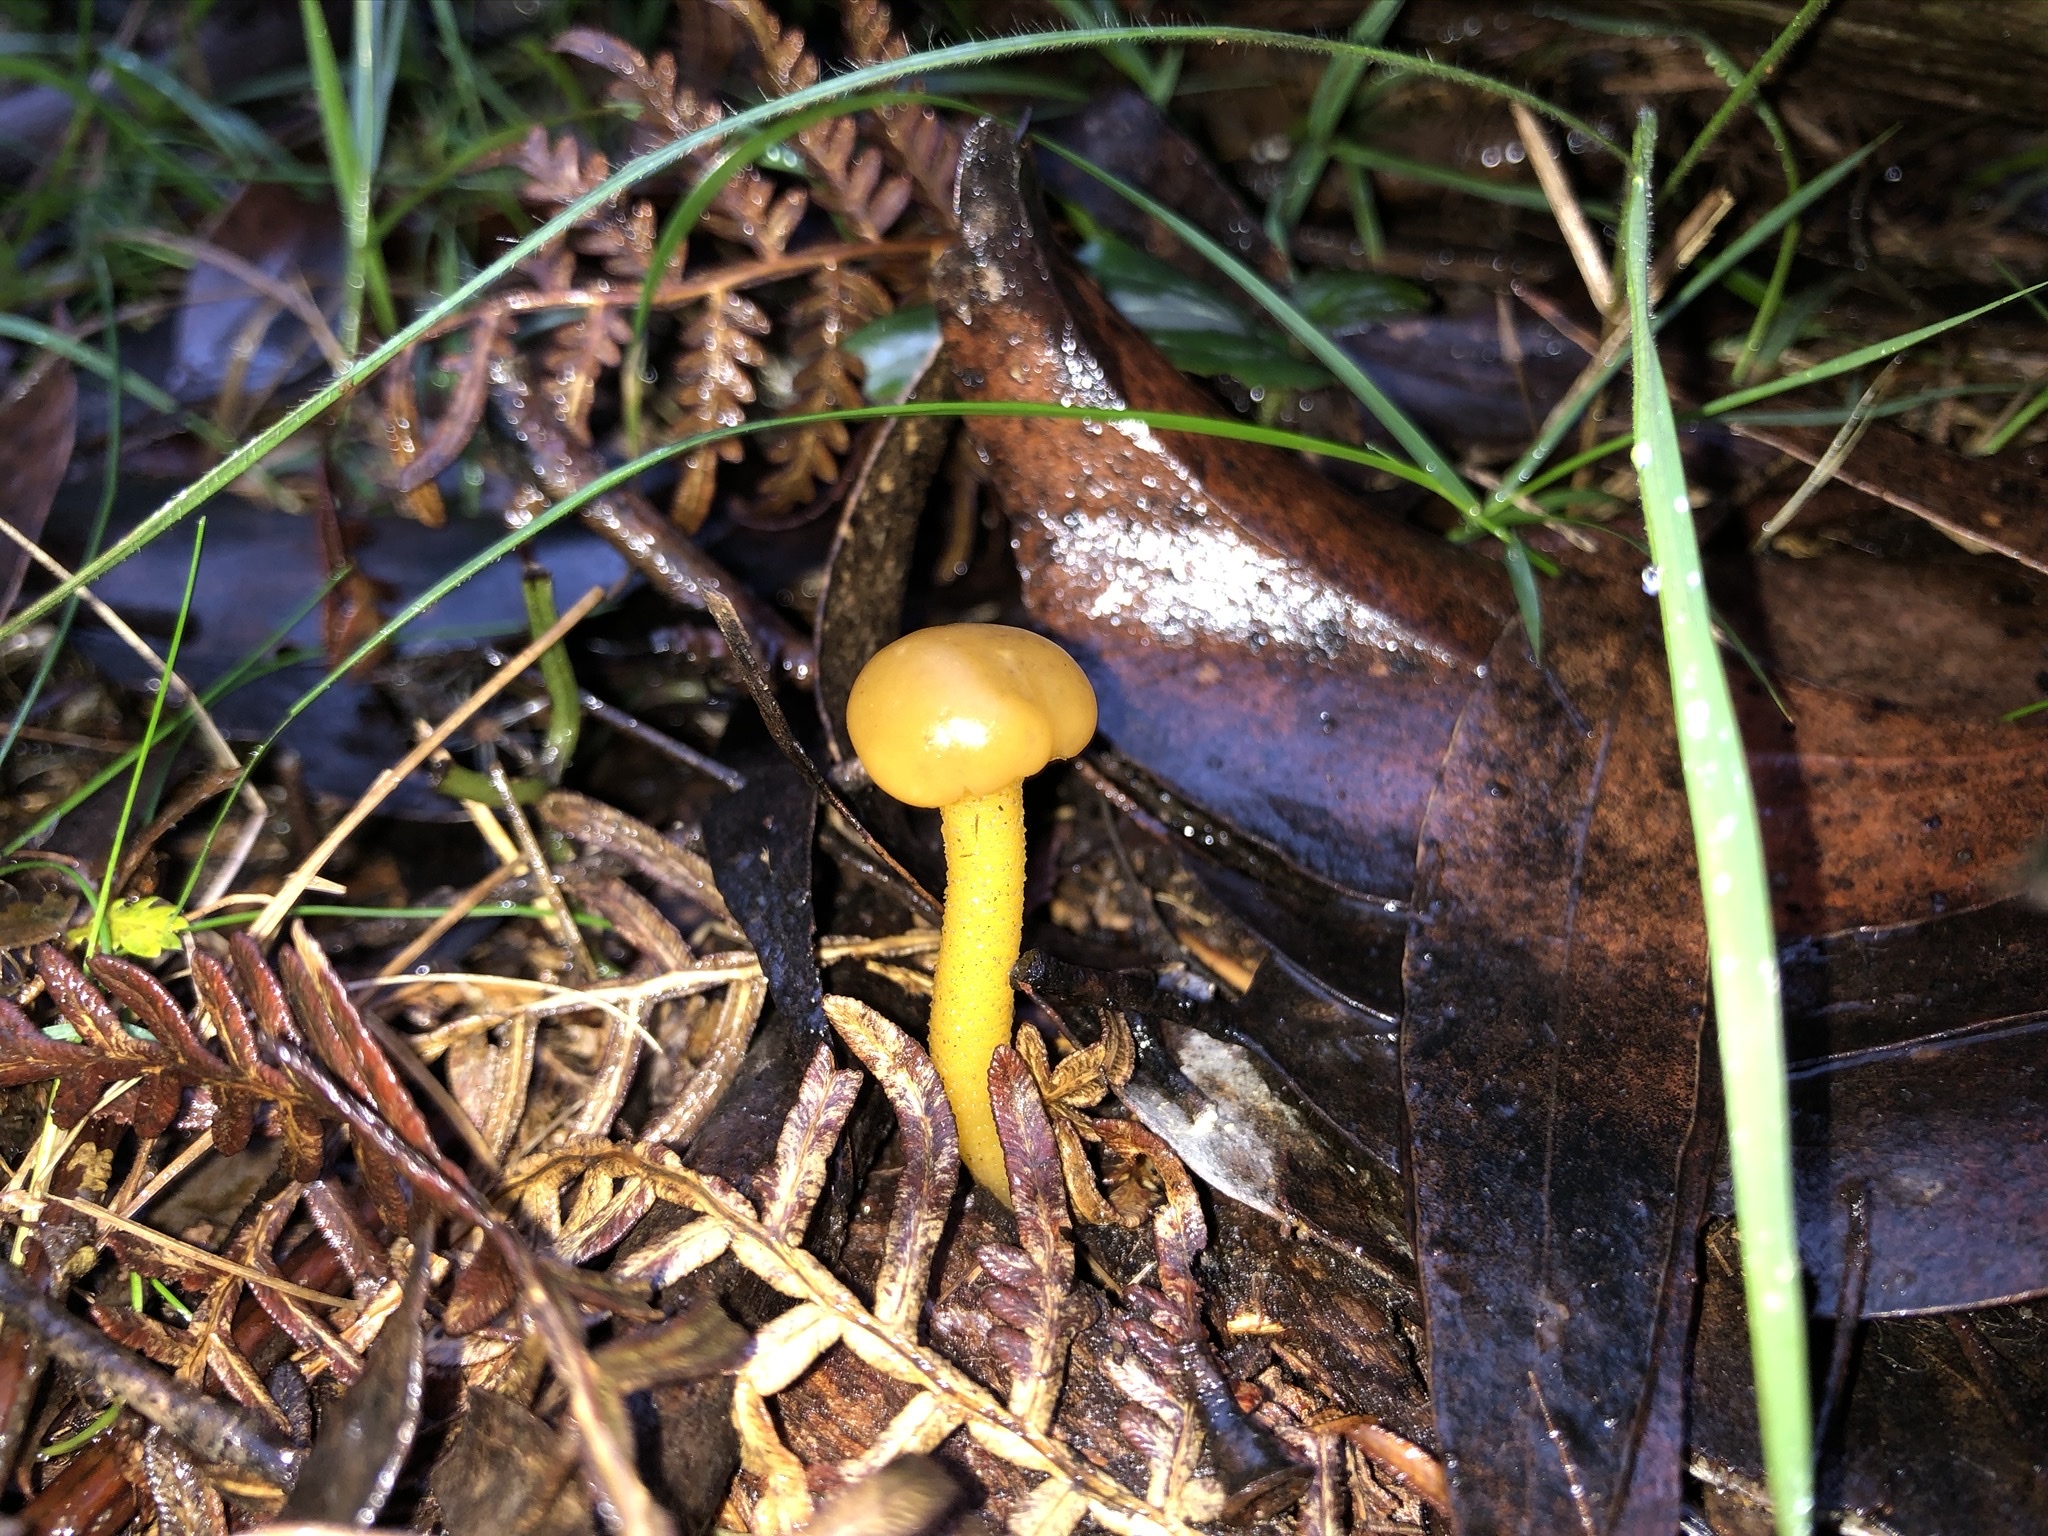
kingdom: Fungi
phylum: Ascomycota
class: Leotiomycetes
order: Leotiales
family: Leotiaceae
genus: Leotia
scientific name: Leotia lubrica
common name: Jellybaby
